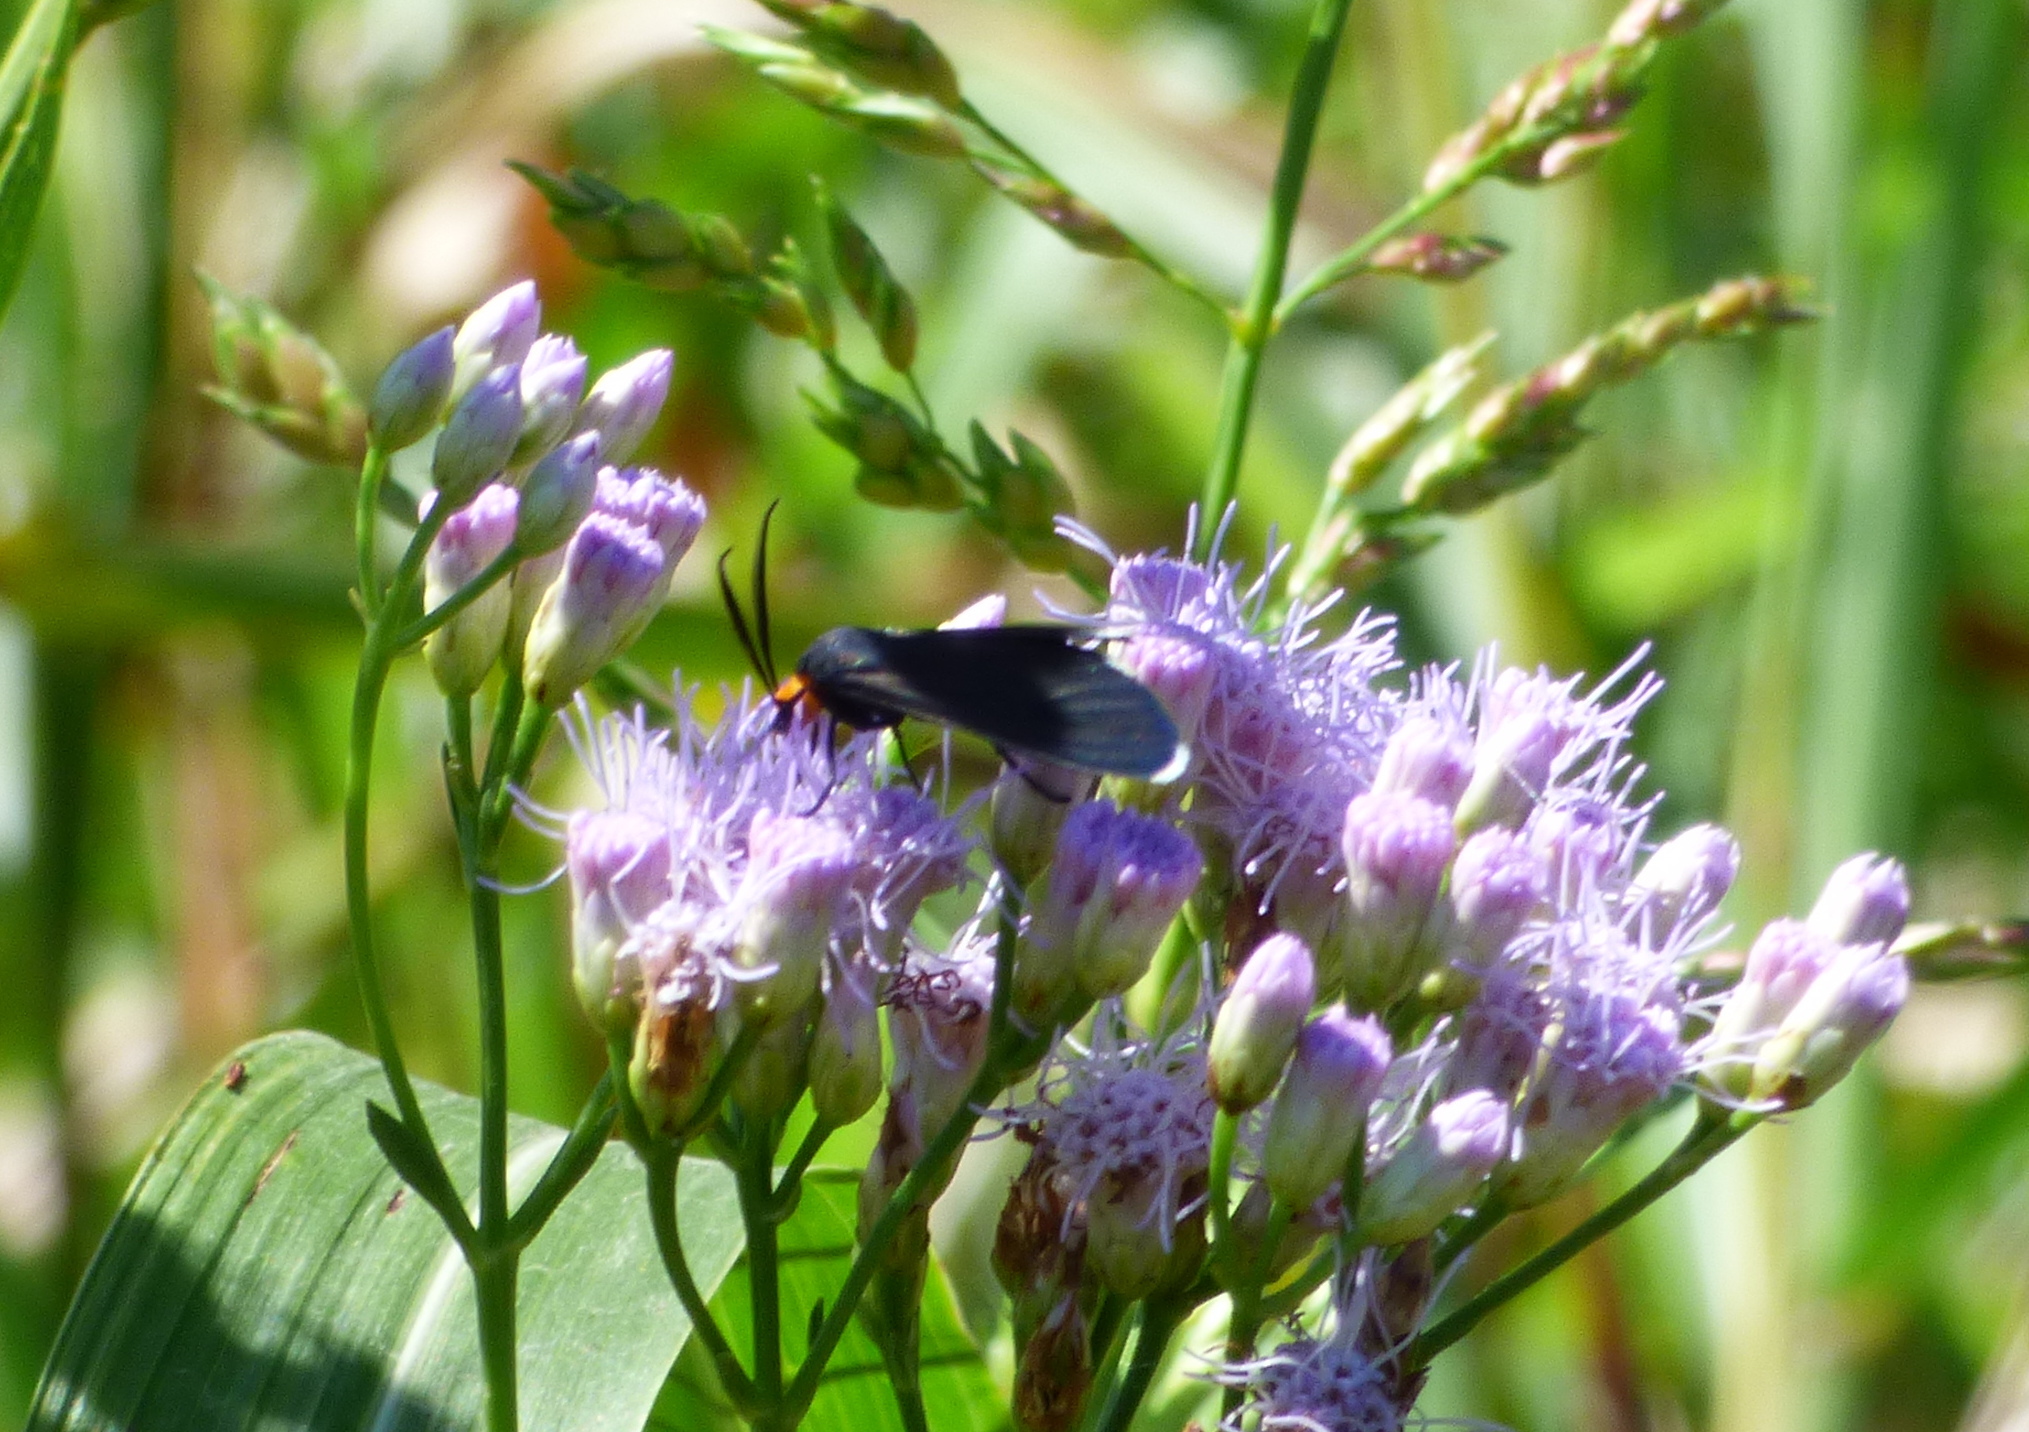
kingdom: Animalia
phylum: Arthropoda
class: Insecta
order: Lepidoptera
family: Erebidae
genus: Ctenucha
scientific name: Ctenucha rubriceps
